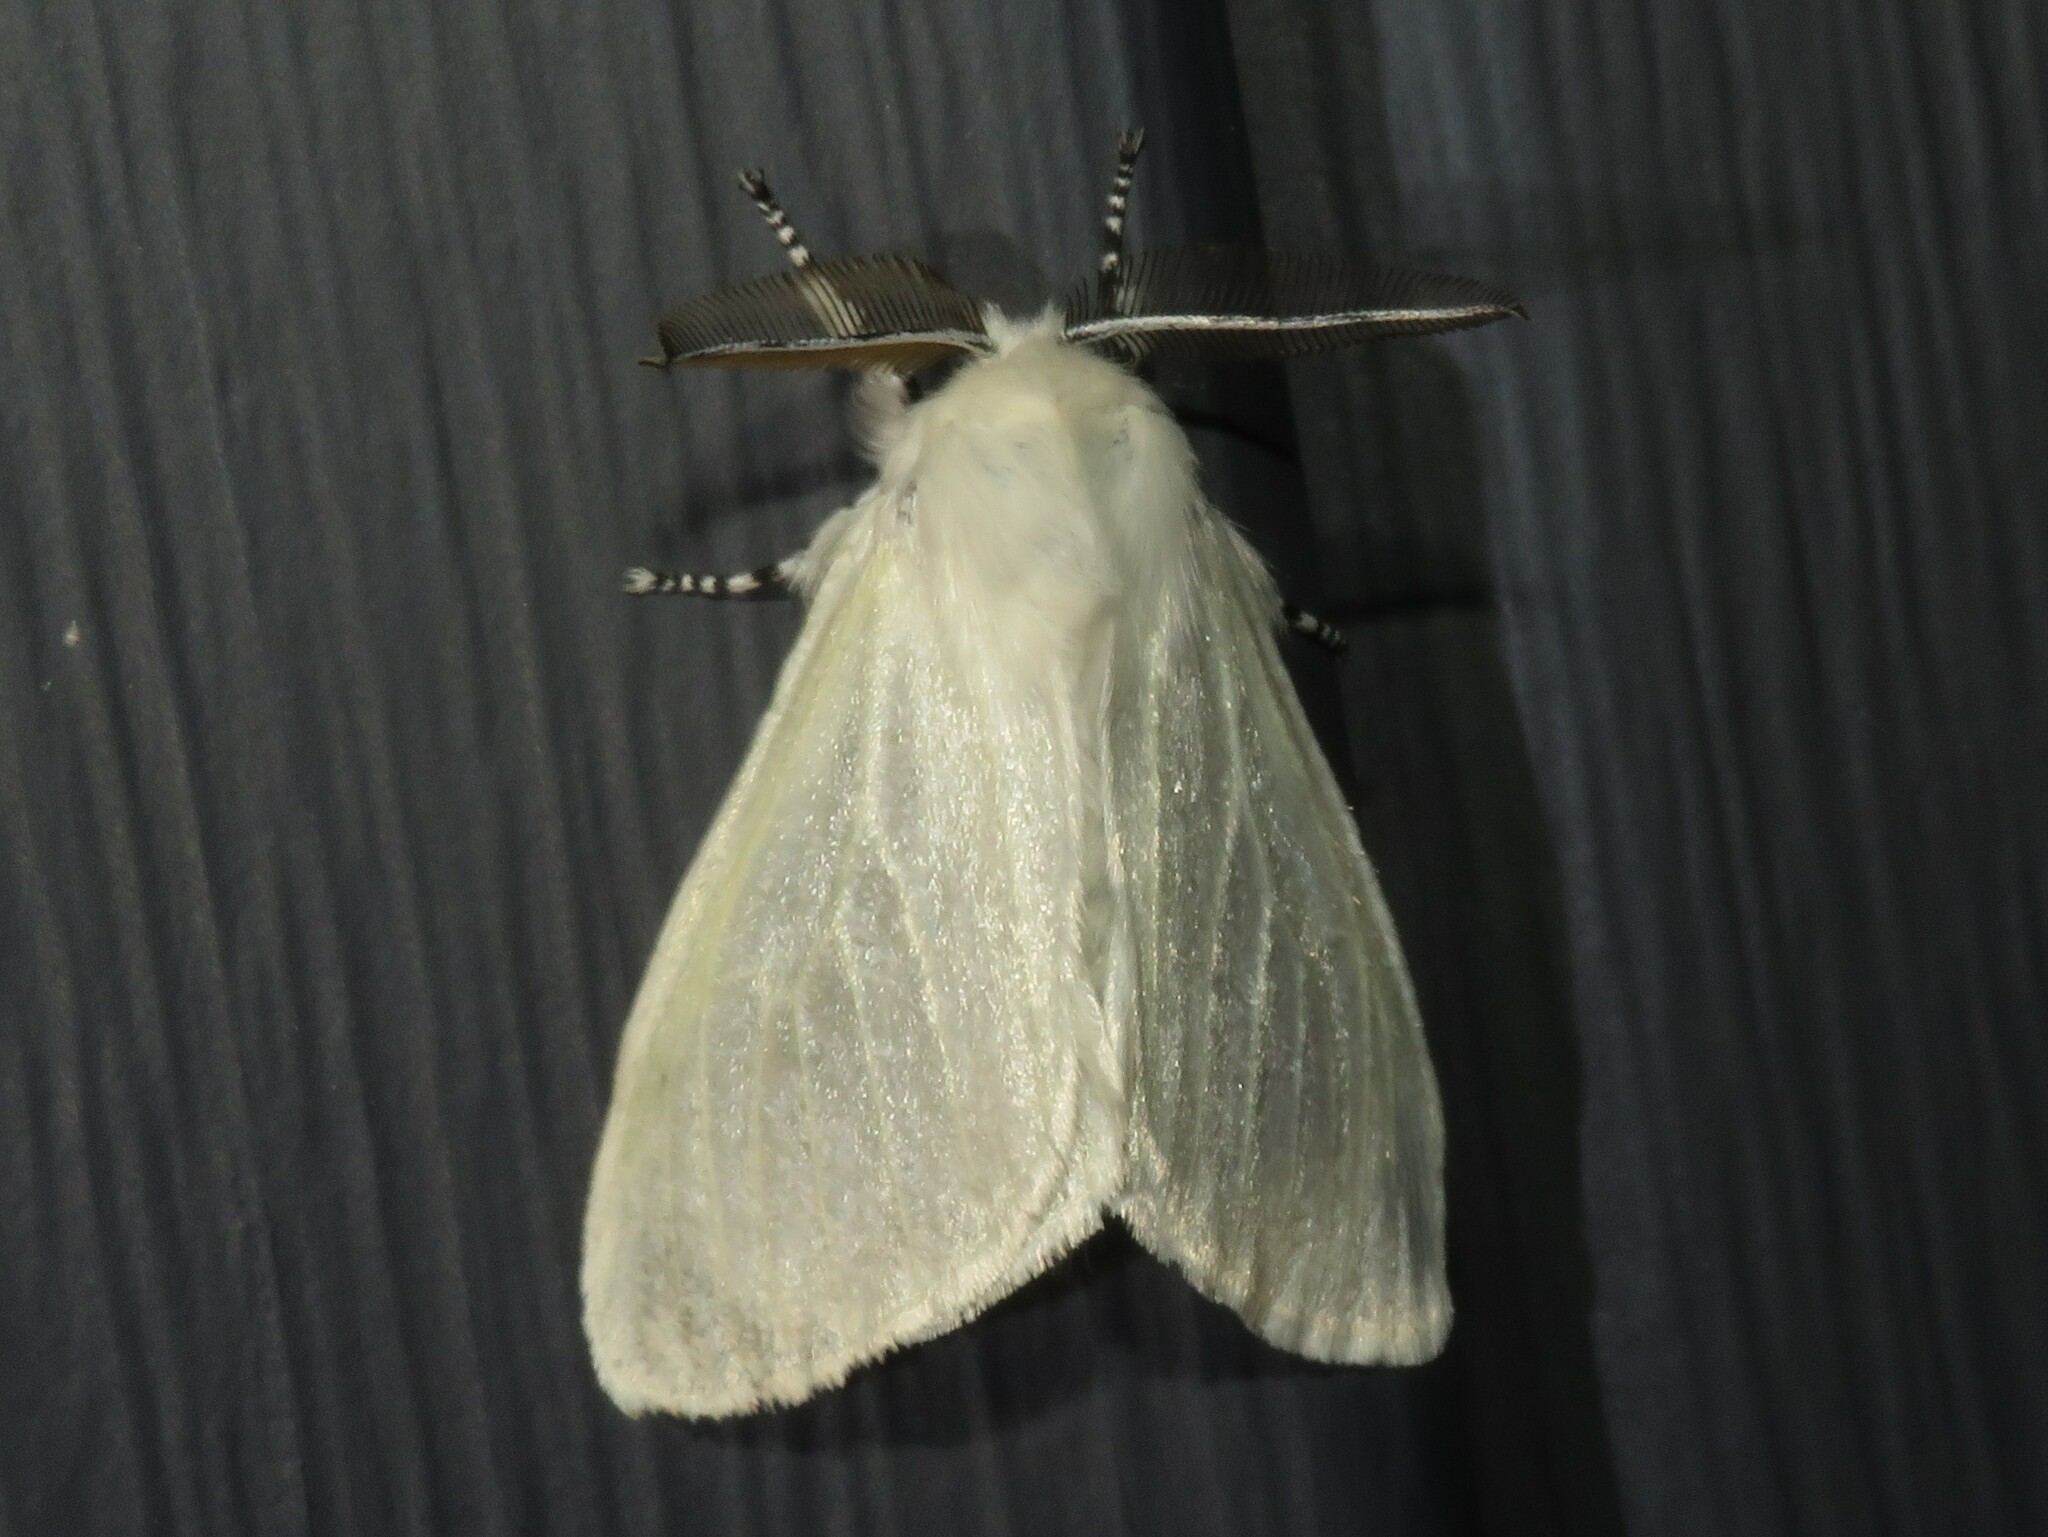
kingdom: Animalia
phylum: Arthropoda
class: Insecta
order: Lepidoptera
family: Erebidae
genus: Leucoma
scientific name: Leucoma salicis
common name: White satin moth
